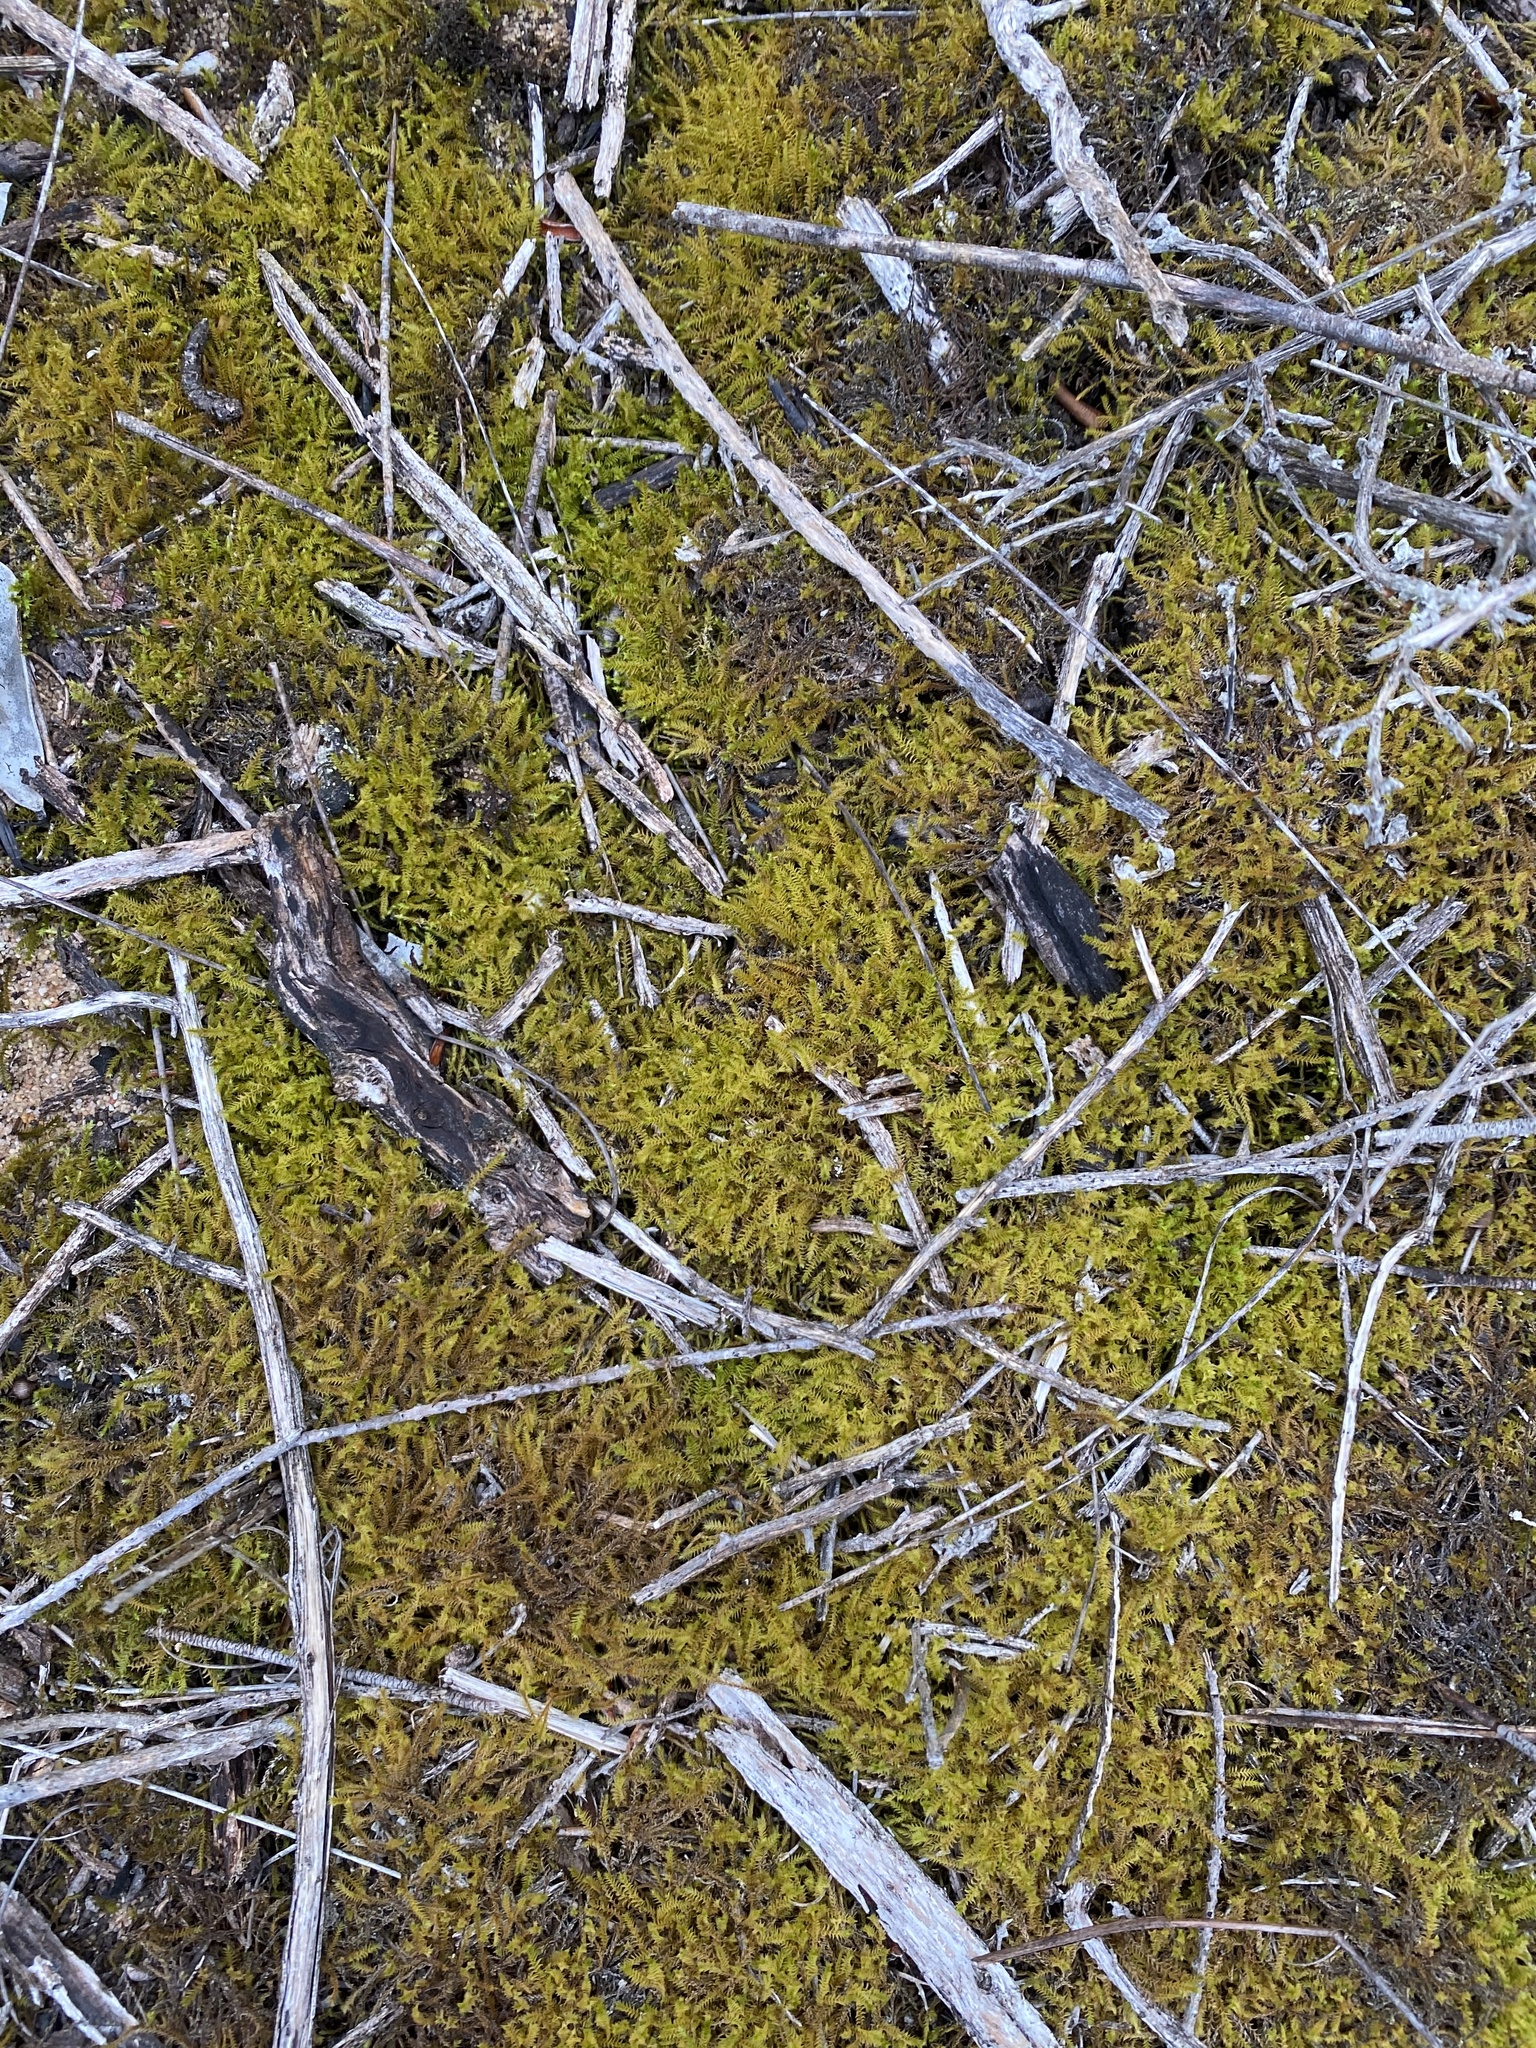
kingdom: Plantae
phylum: Bryophyta
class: Bryopsida
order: Pottiales
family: Pottiaceae
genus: Triquetrella
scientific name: Triquetrella tristicha
